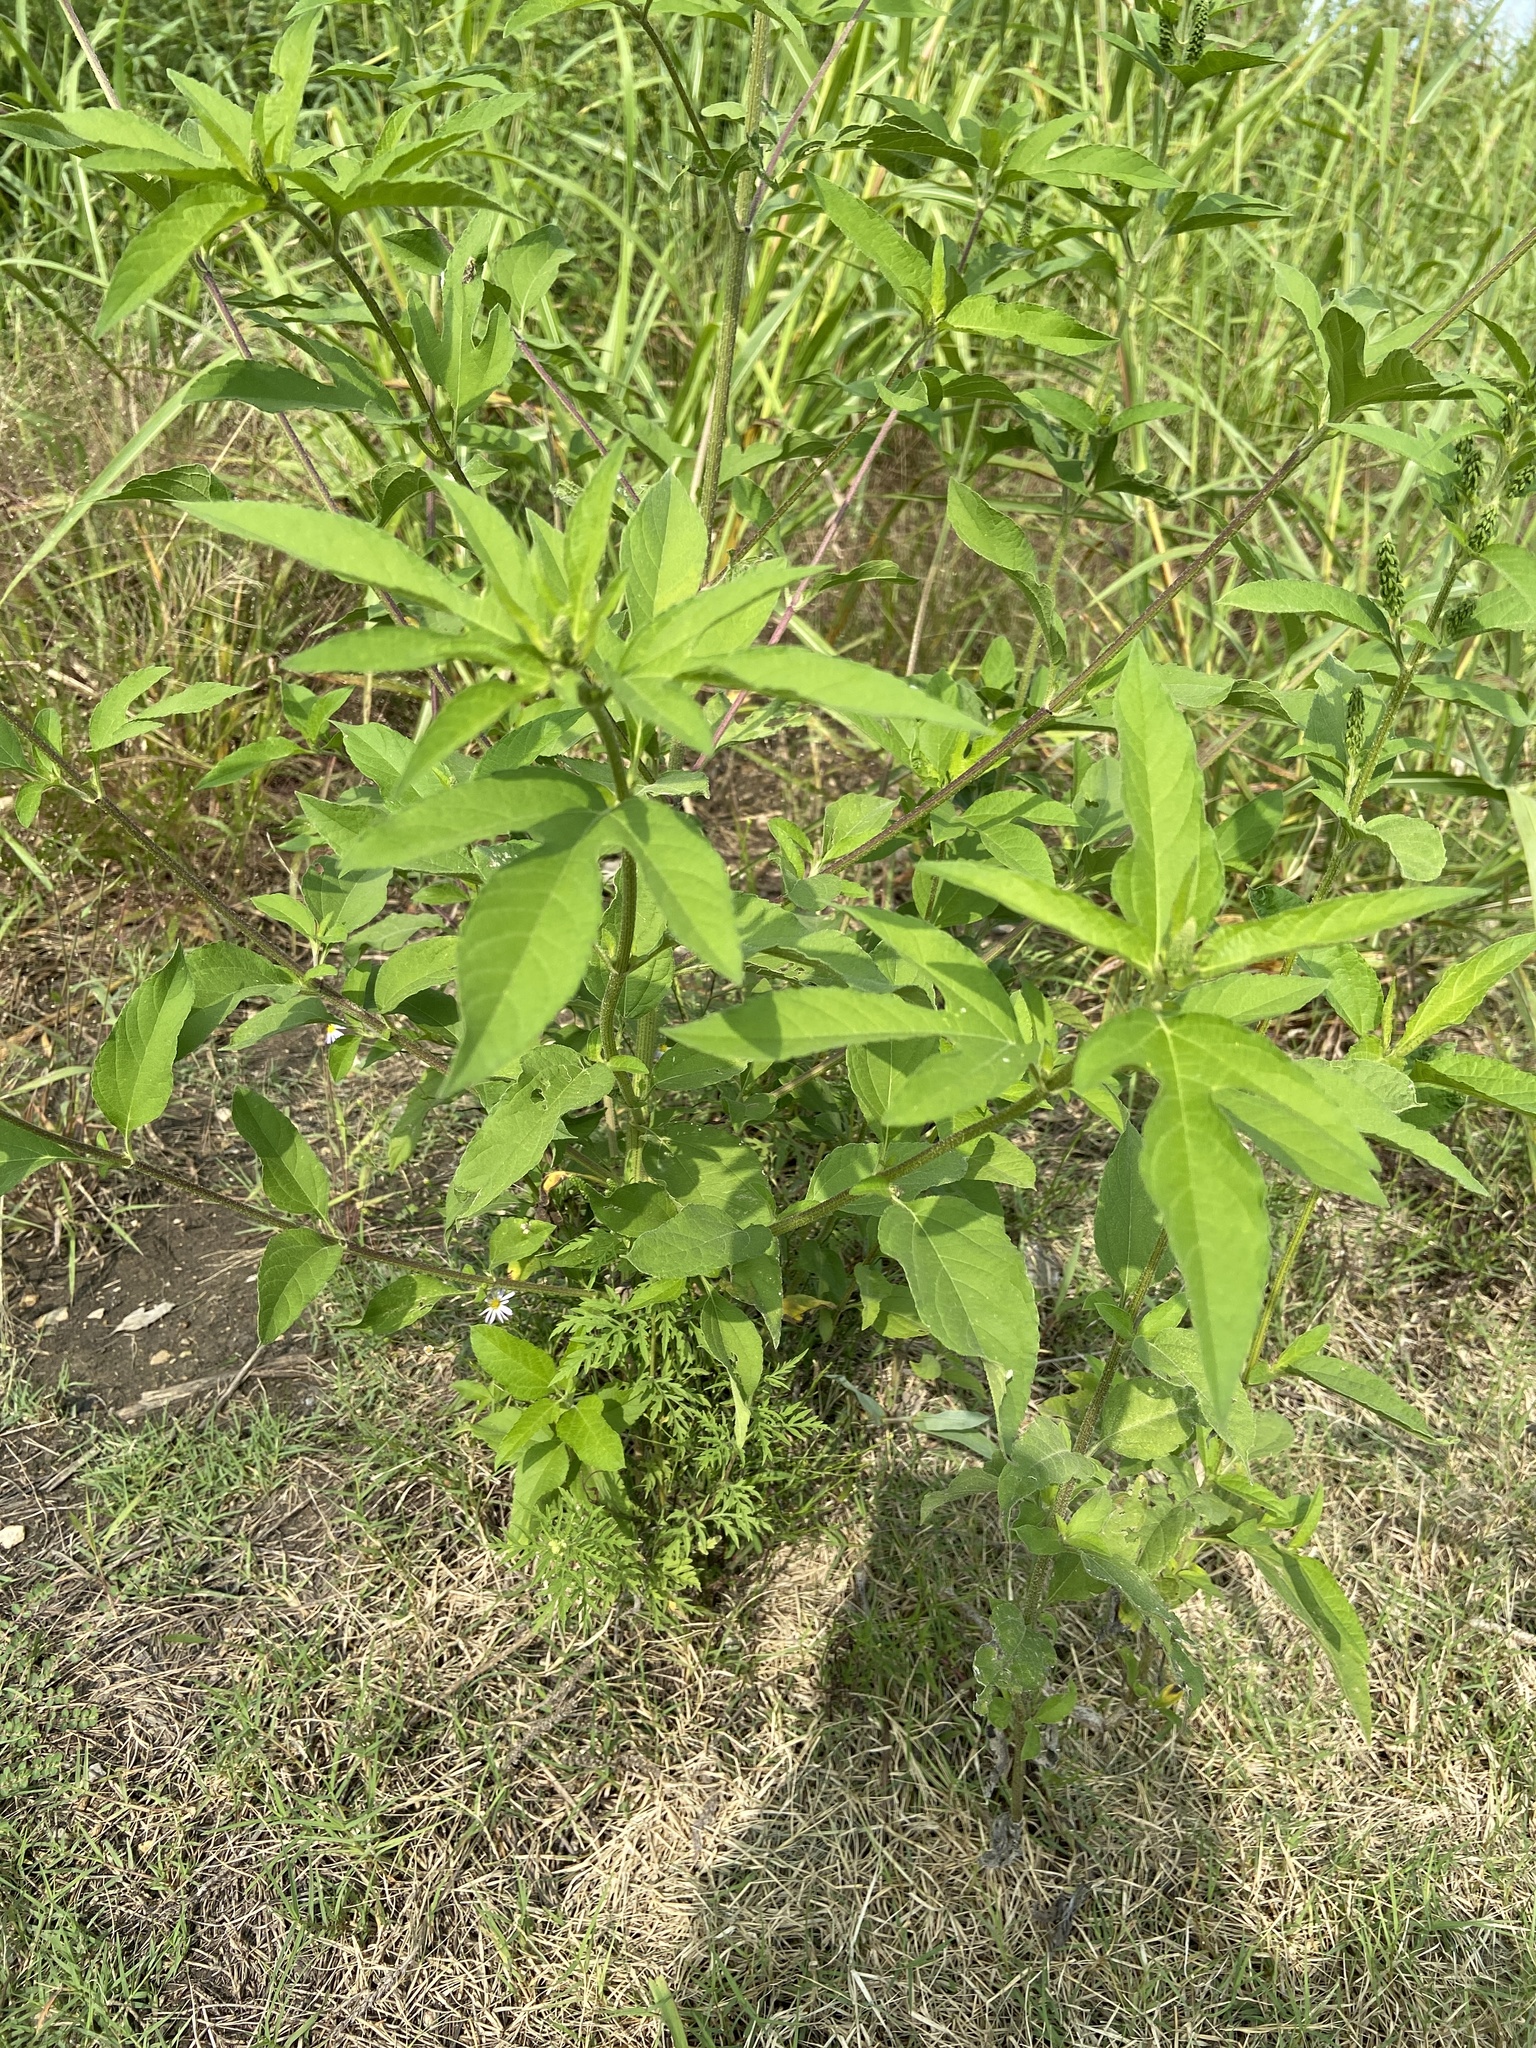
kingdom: Plantae
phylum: Tracheophyta
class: Magnoliopsida
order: Asterales
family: Asteraceae
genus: Ambrosia
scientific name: Ambrosia trifida
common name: Giant ragweed
